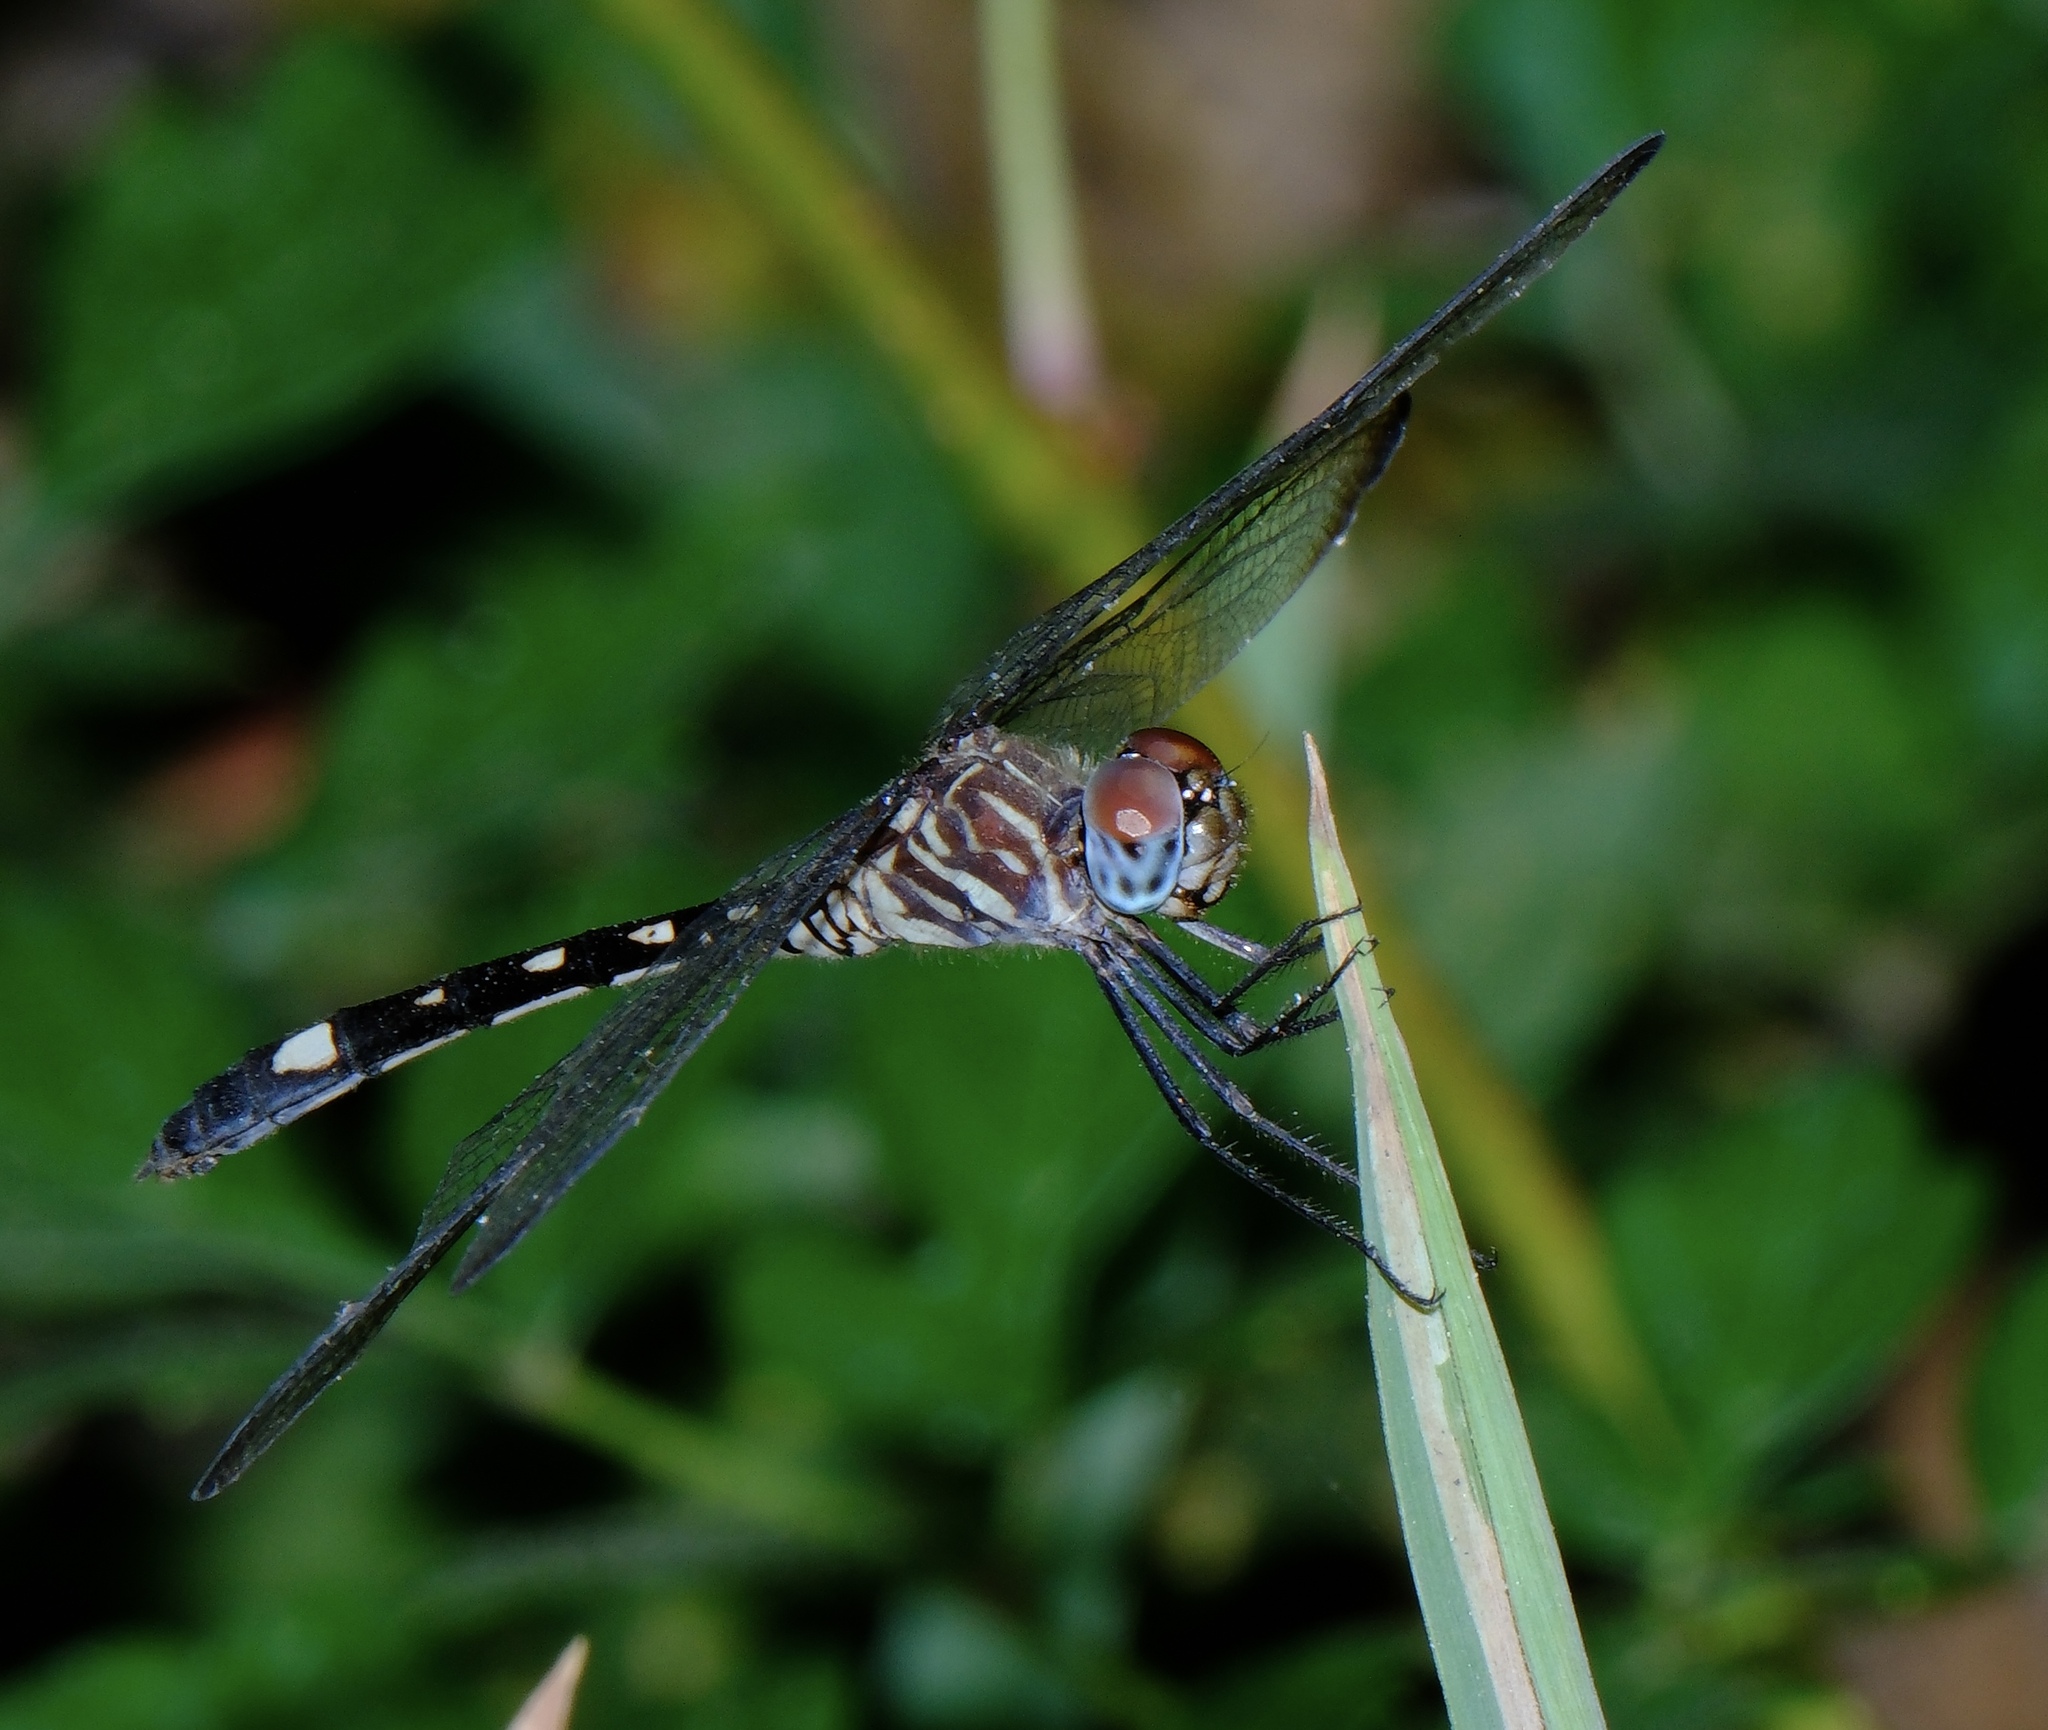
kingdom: Animalia
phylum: Arthropoda
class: Insecta
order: Odonata
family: Libellulidae
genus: Dythemis
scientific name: Dythemis velox
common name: Swift setwing
